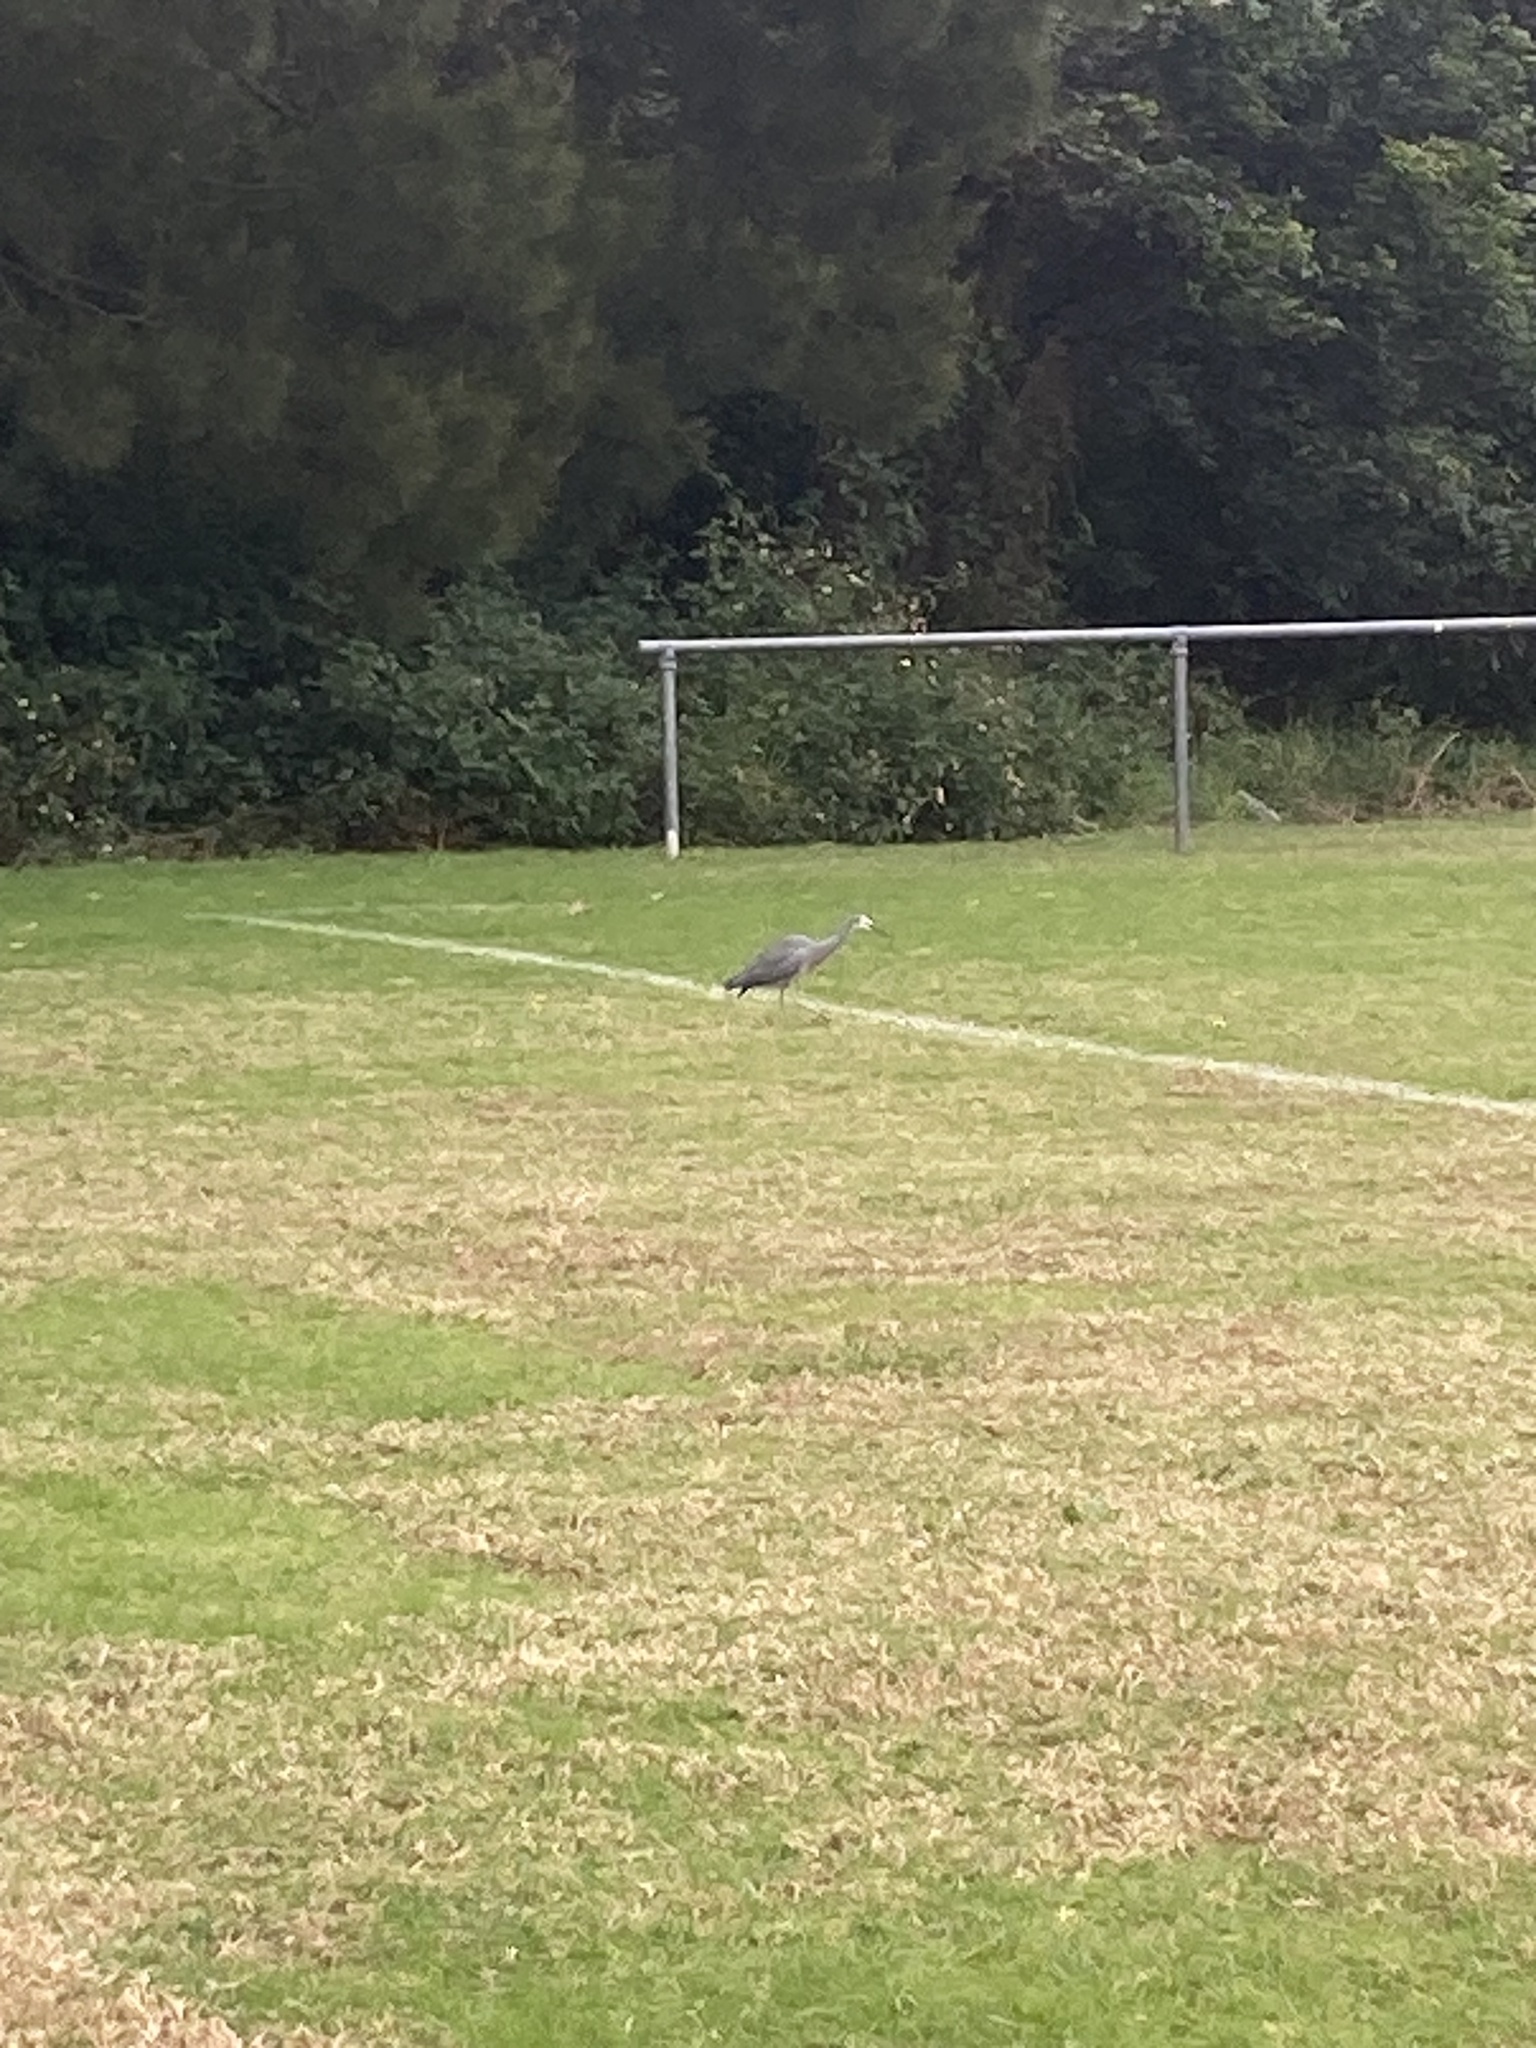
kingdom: Animalia
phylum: Chordata
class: Aves
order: Pelecaniformes
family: Ardeidae
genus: Egretta
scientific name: Egretta novaehollandiae
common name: White-faced heron
